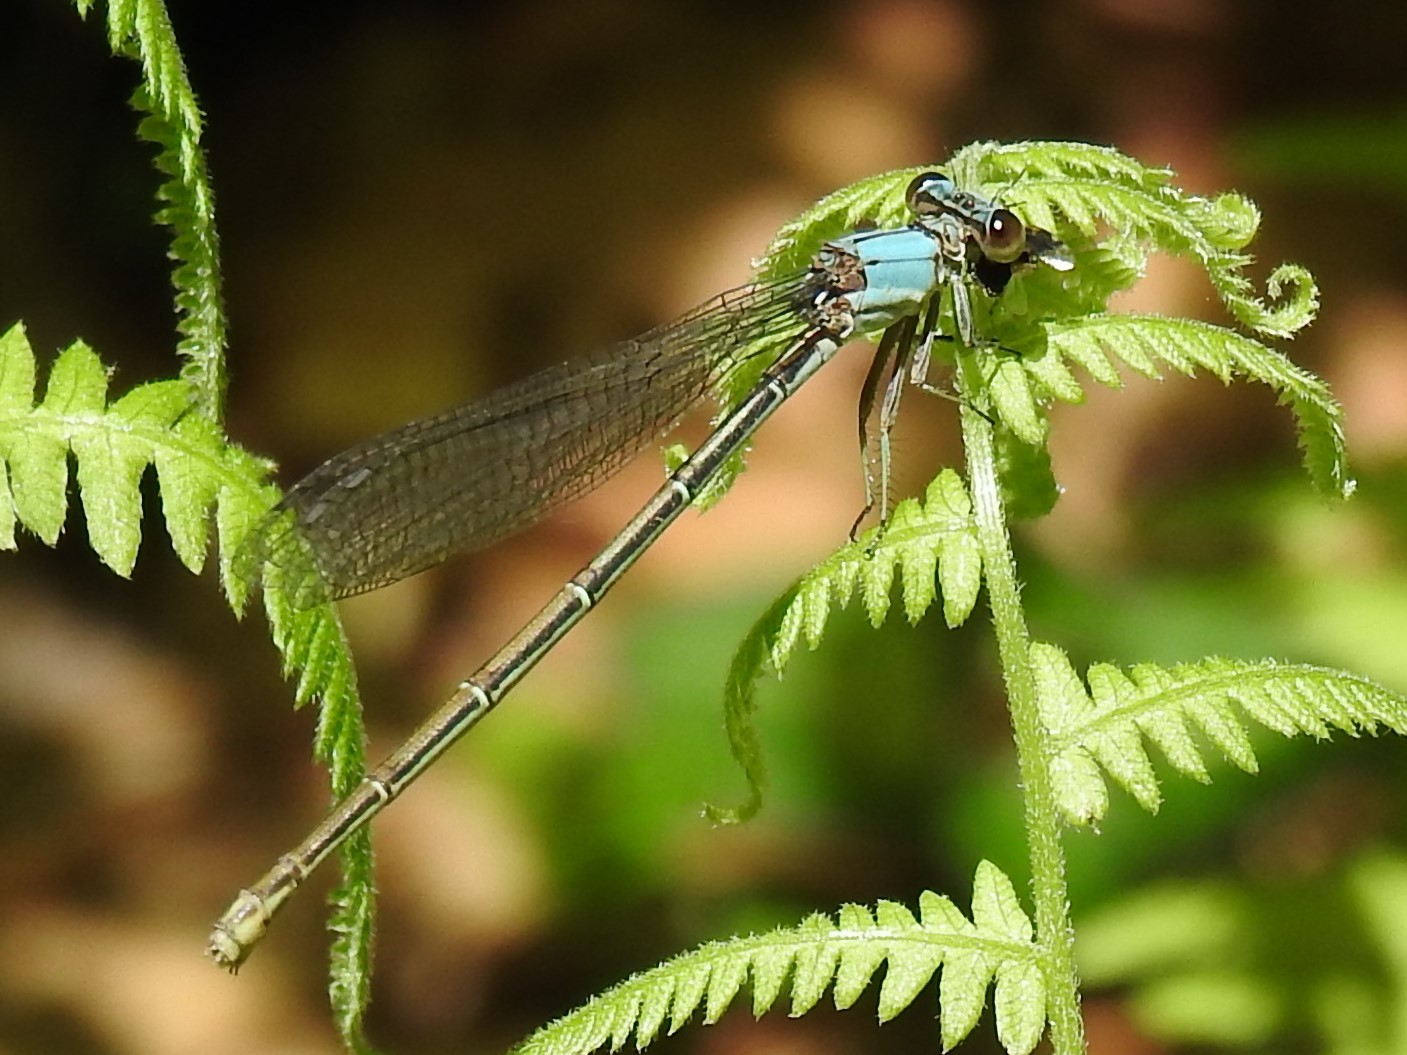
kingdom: Animalia
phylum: Arthropoda
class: Insecta
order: Odonata
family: Coenagrionidae
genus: Argia
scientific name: Argia moesta
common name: Powdered dancer
